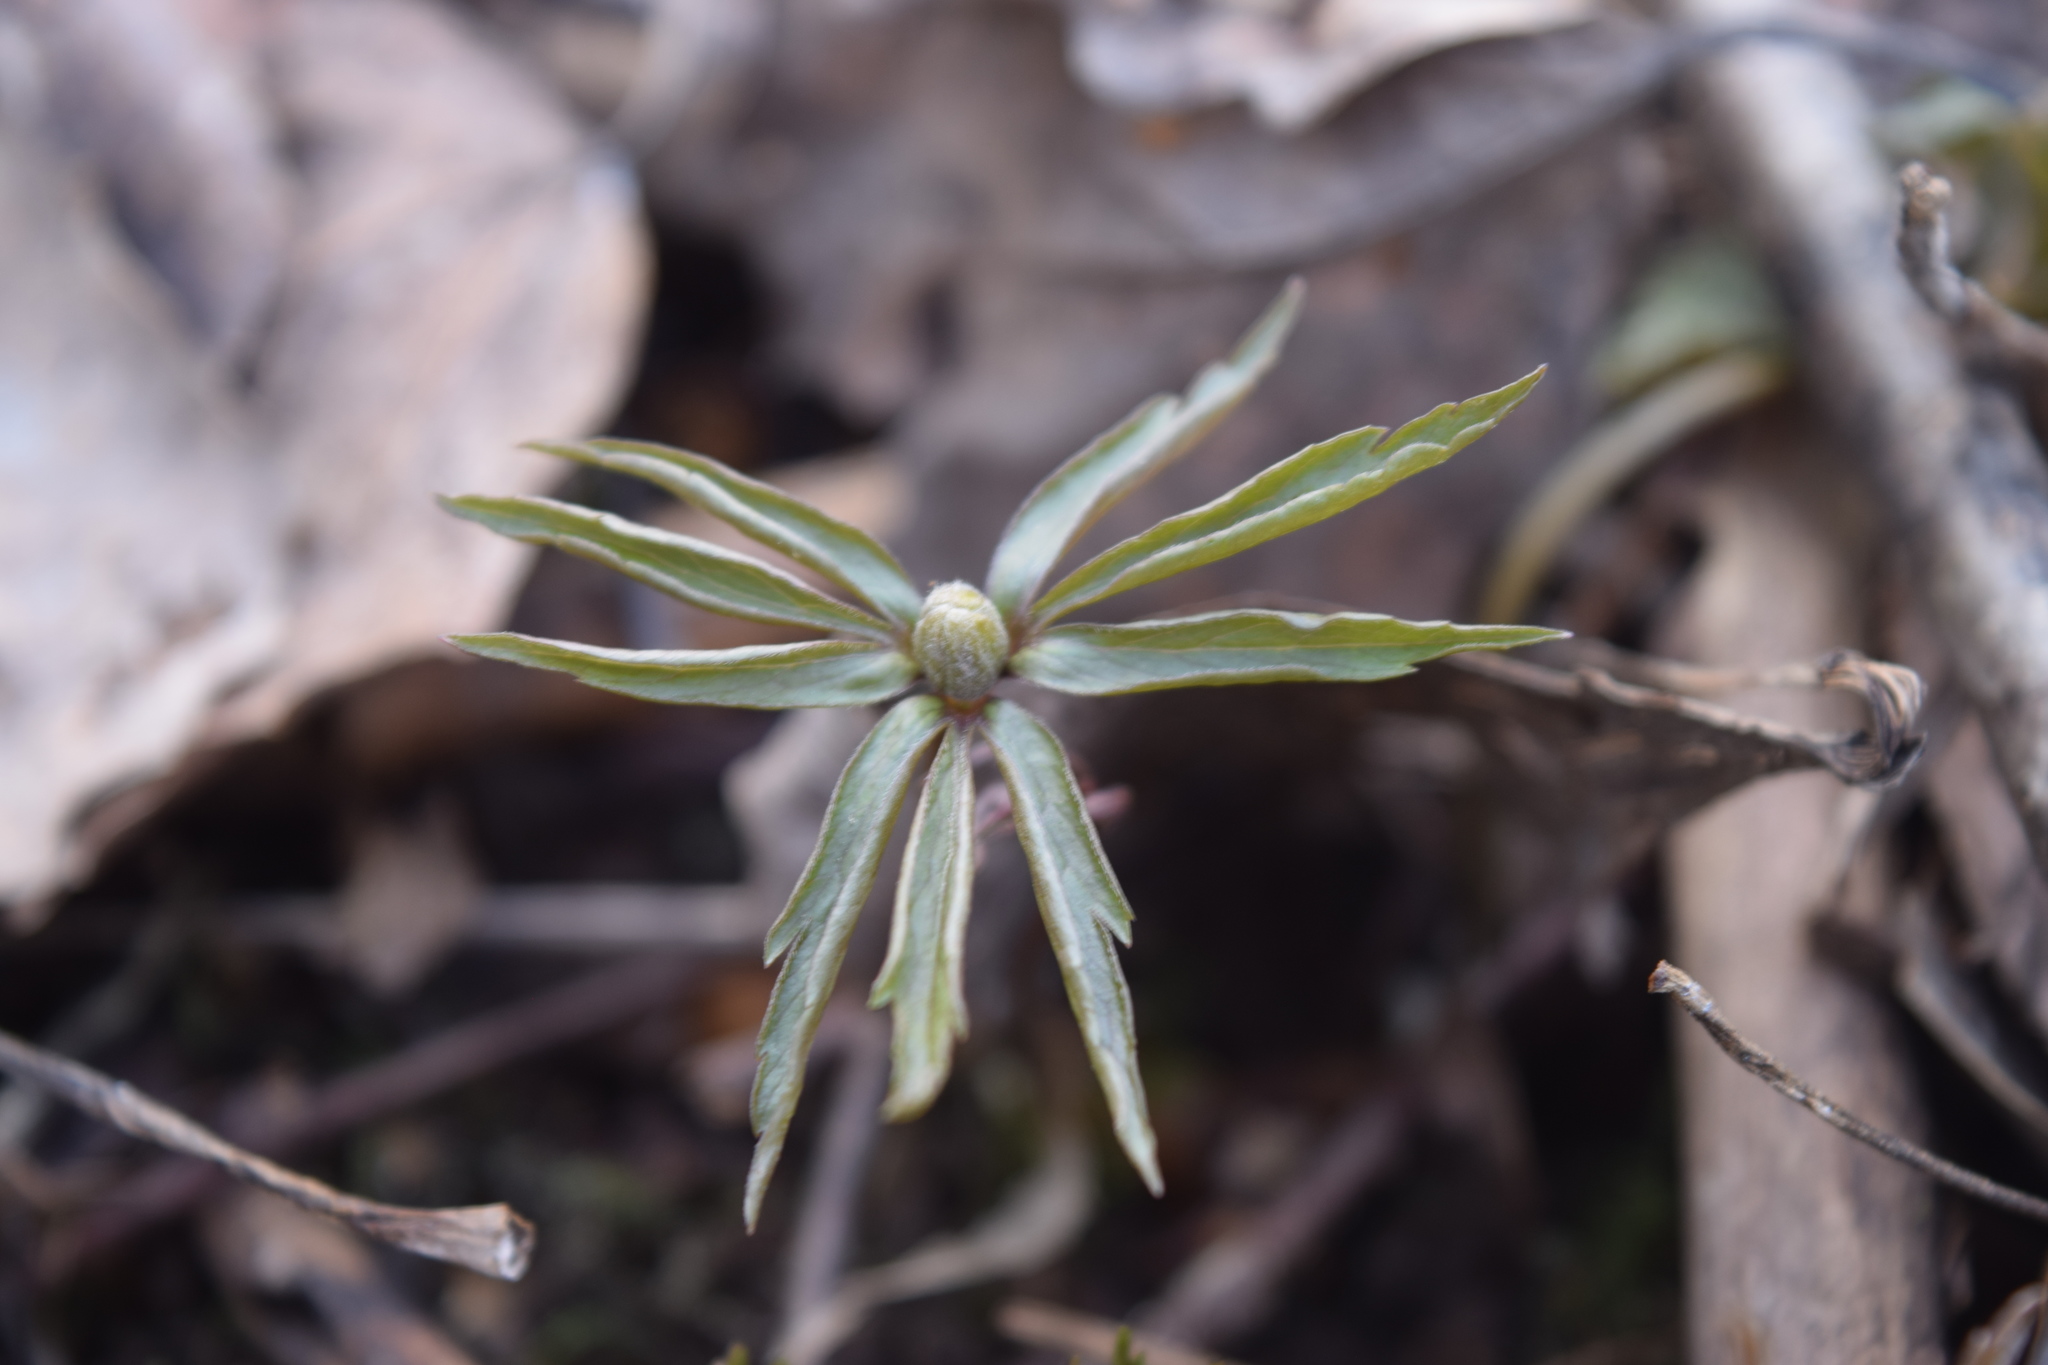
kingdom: Plantae
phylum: Tracheophyta
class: Magnoliopsida
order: Ranunculales
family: Ranunculaceae
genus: Anemone
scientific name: Anemone ranunculoides
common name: Yellow anemone
